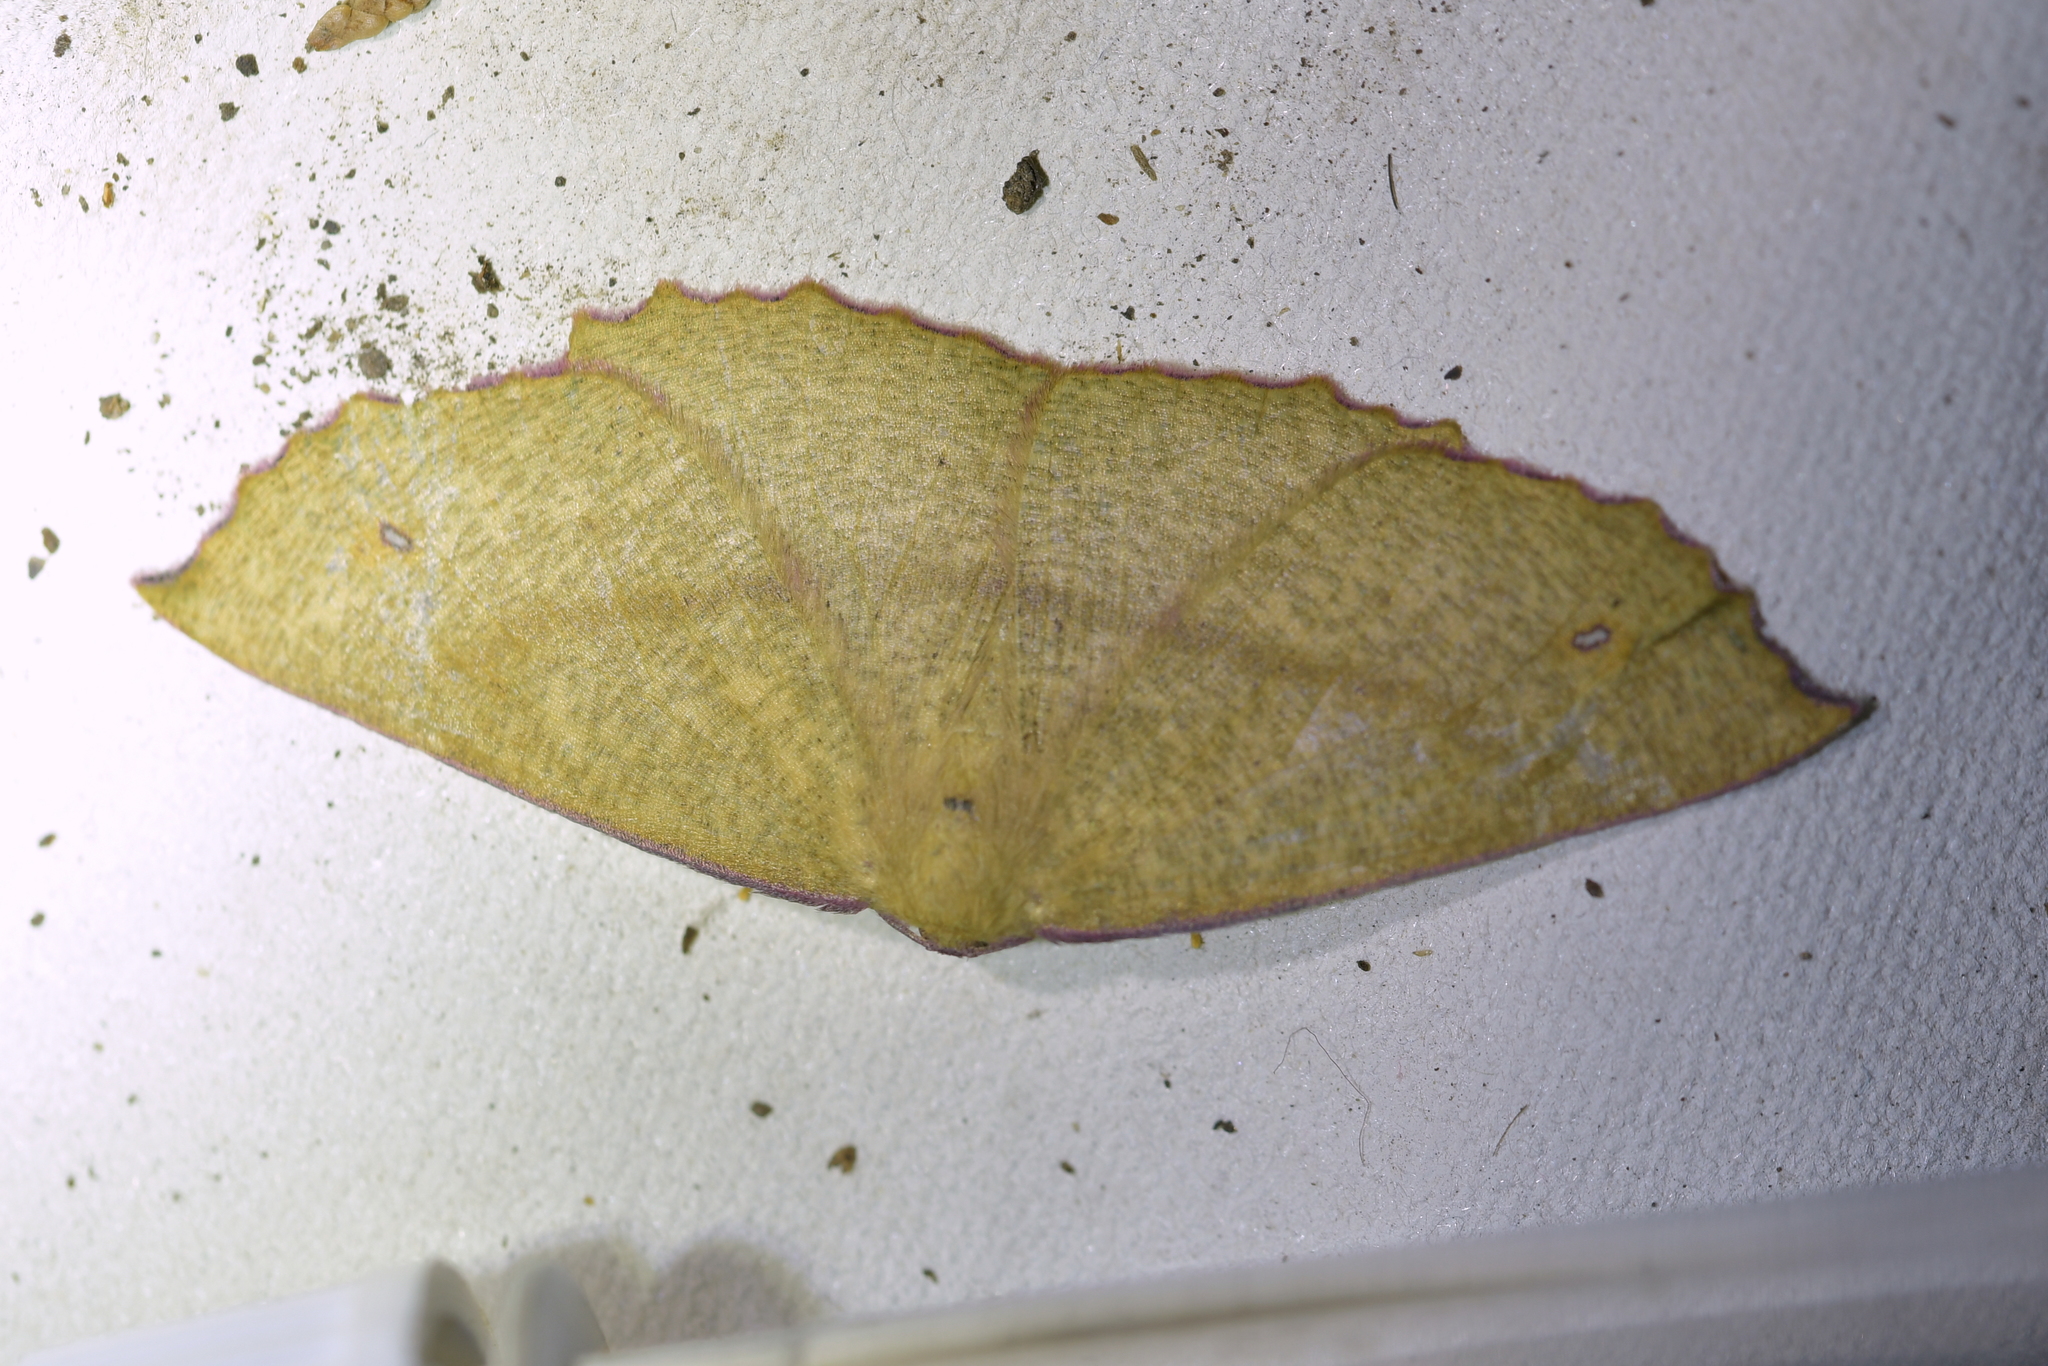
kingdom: Animalia
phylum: Arthropoda
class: Insecta
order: Lepidoptera
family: Geometridae
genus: Xyridacma
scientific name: Xyridacma alectoraria
